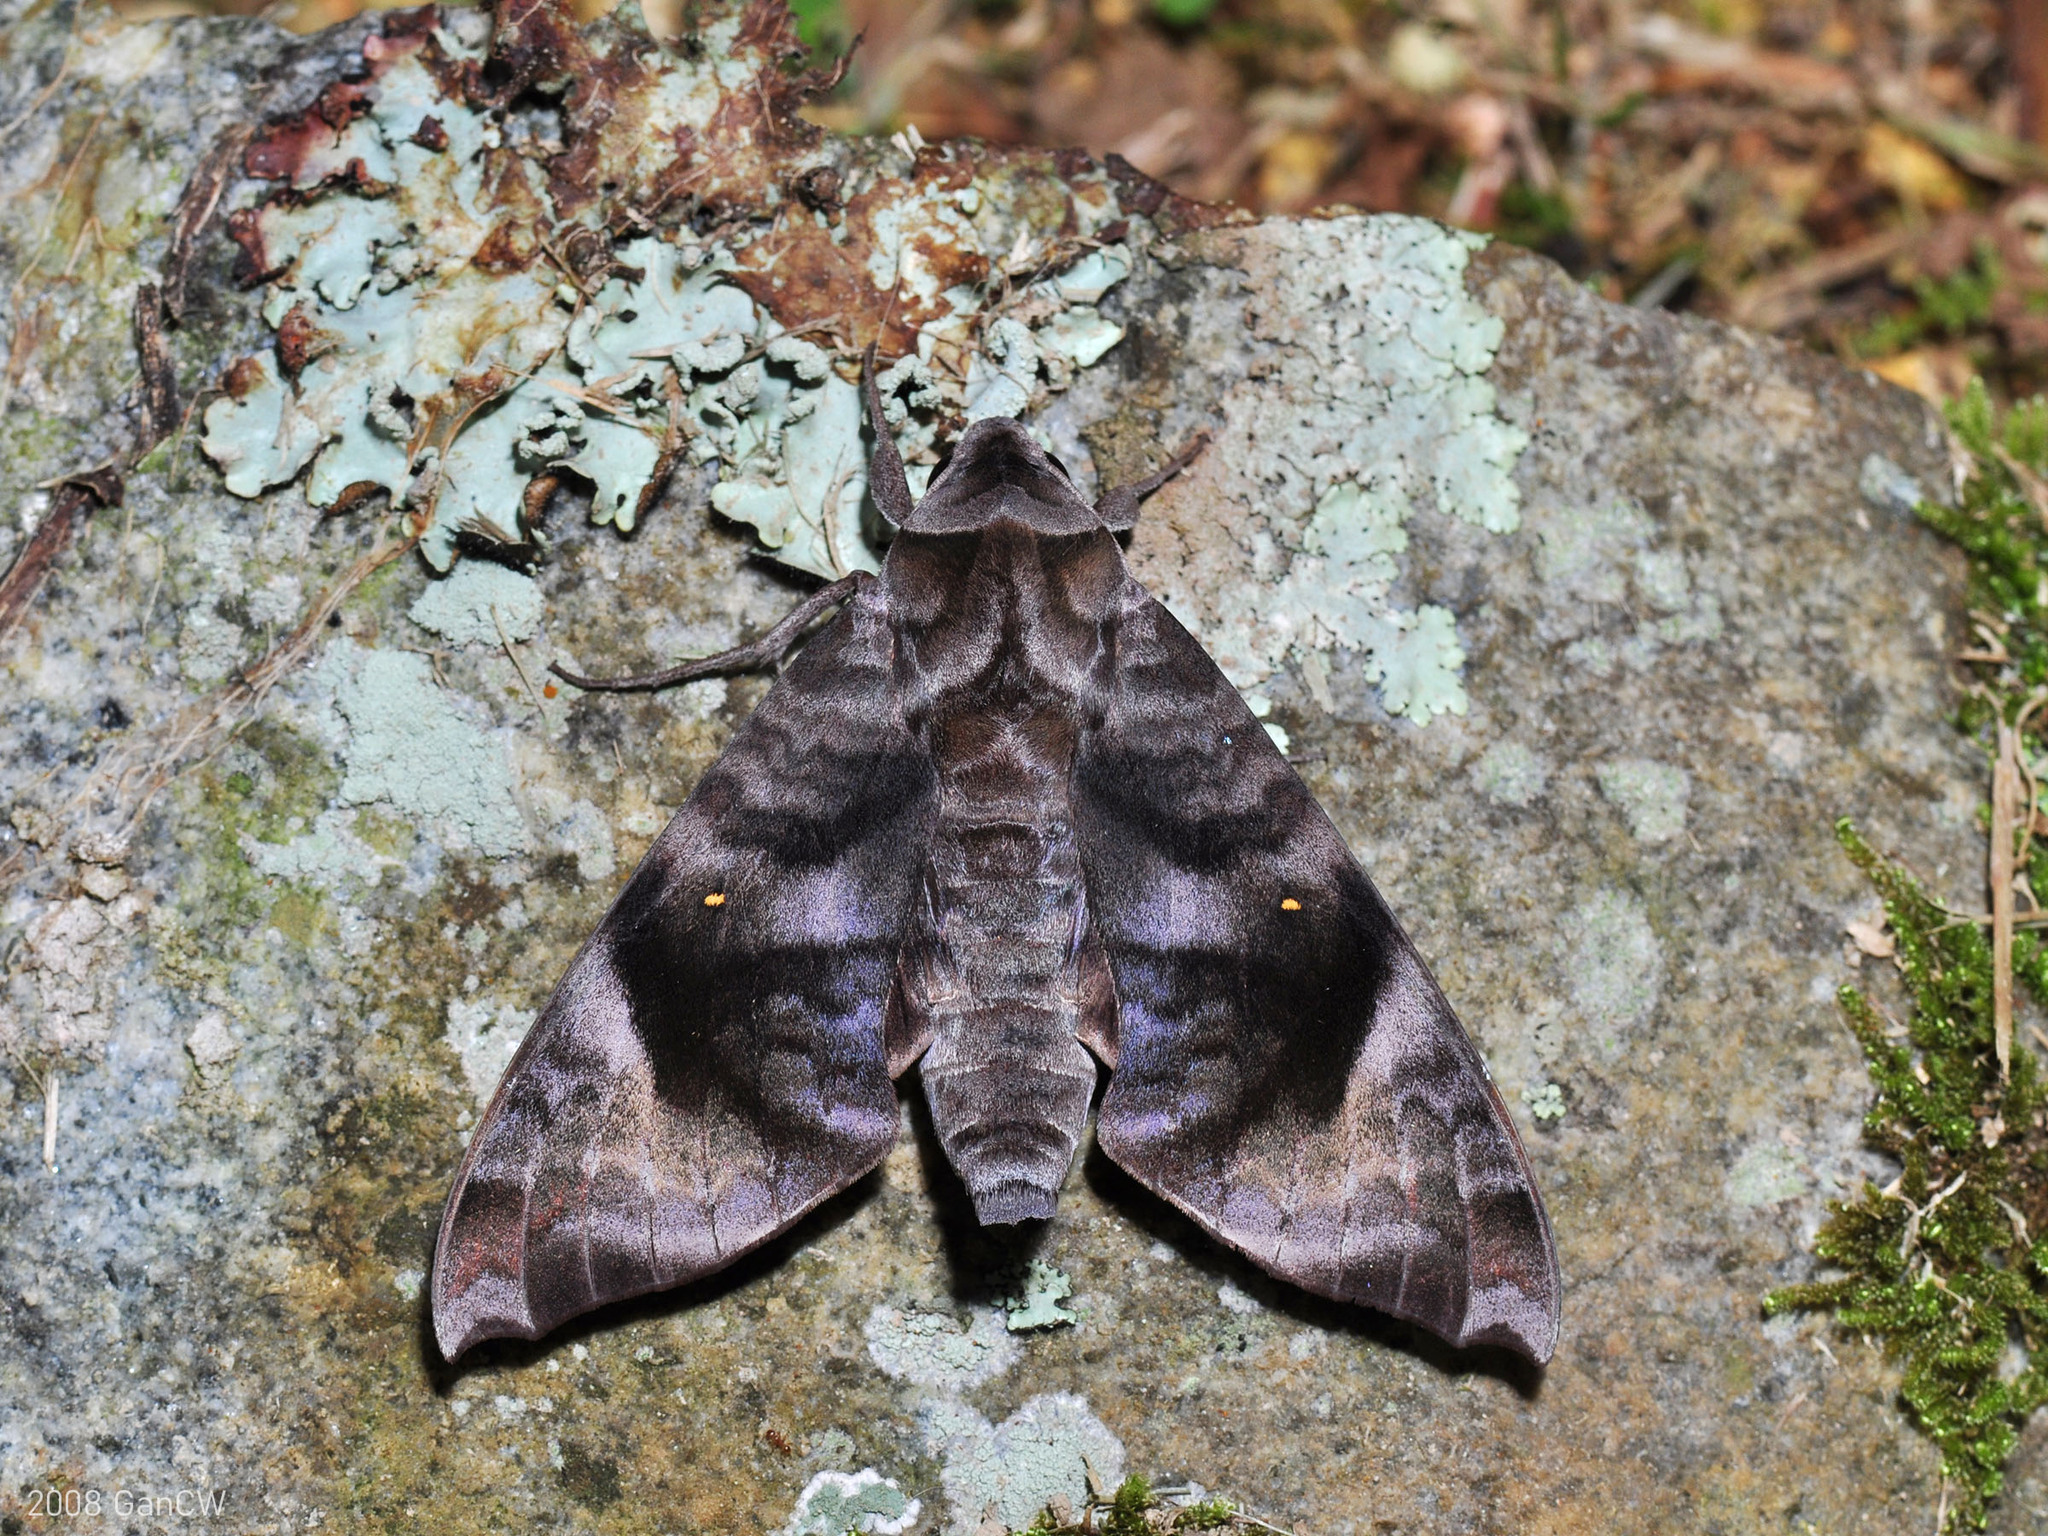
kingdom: Animalia
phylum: Arthropoda
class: Insecta
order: Lepidoptera
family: Sphingidae
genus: Acosmeryx
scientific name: Acosmeryx pseudonaga
